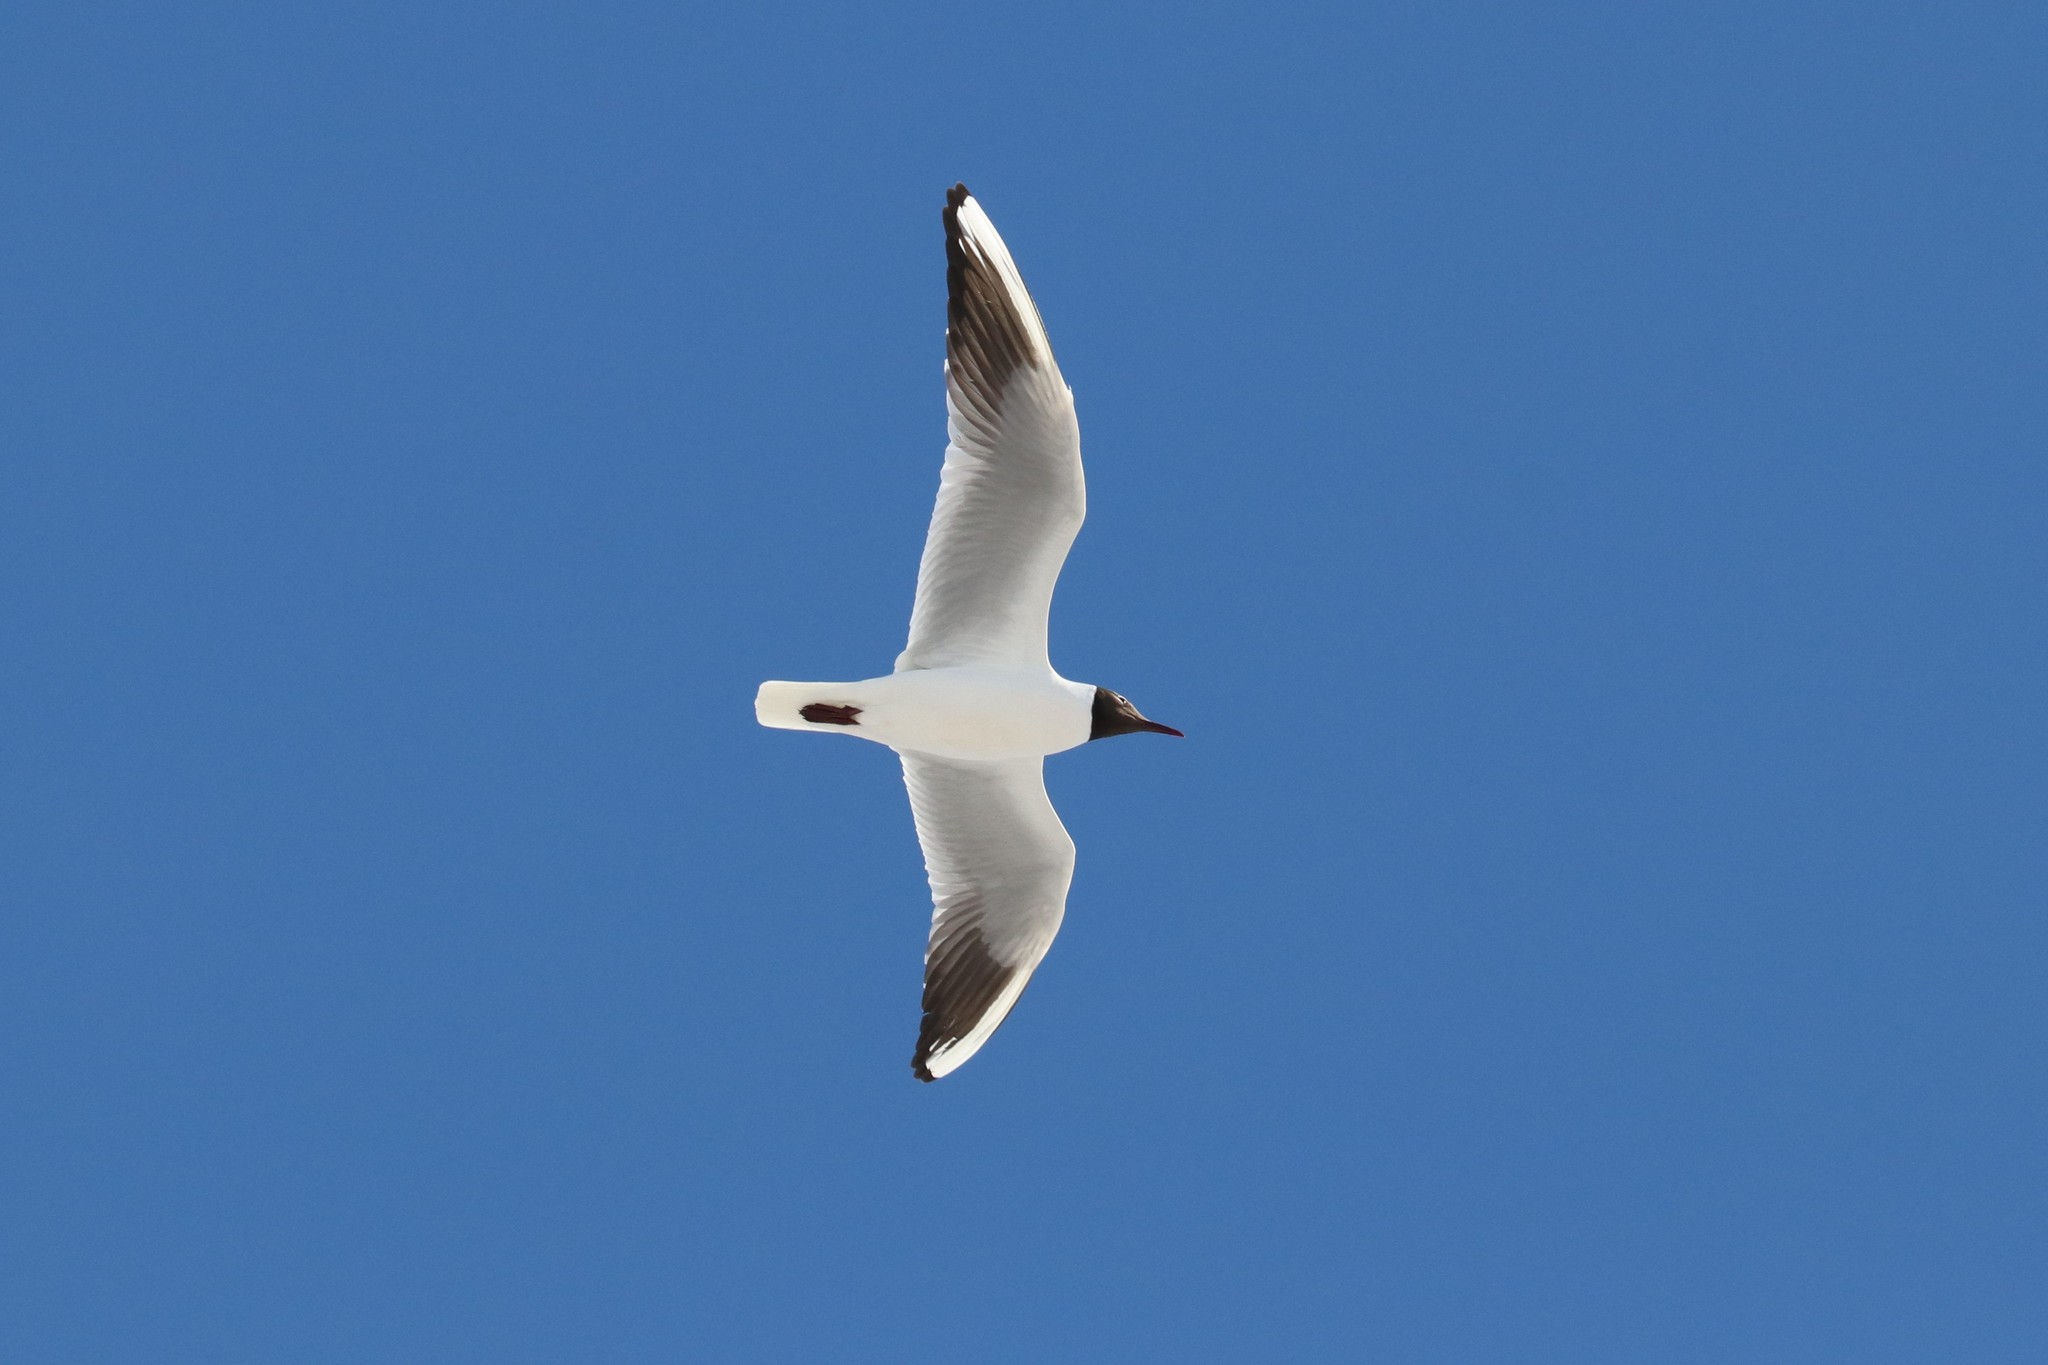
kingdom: Animalia
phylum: Chordata
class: Aves
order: Charadriiformes
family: Laridae
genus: Chroicocephalus
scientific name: Chroicocephalus ridibundus
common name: Black-headed gull
